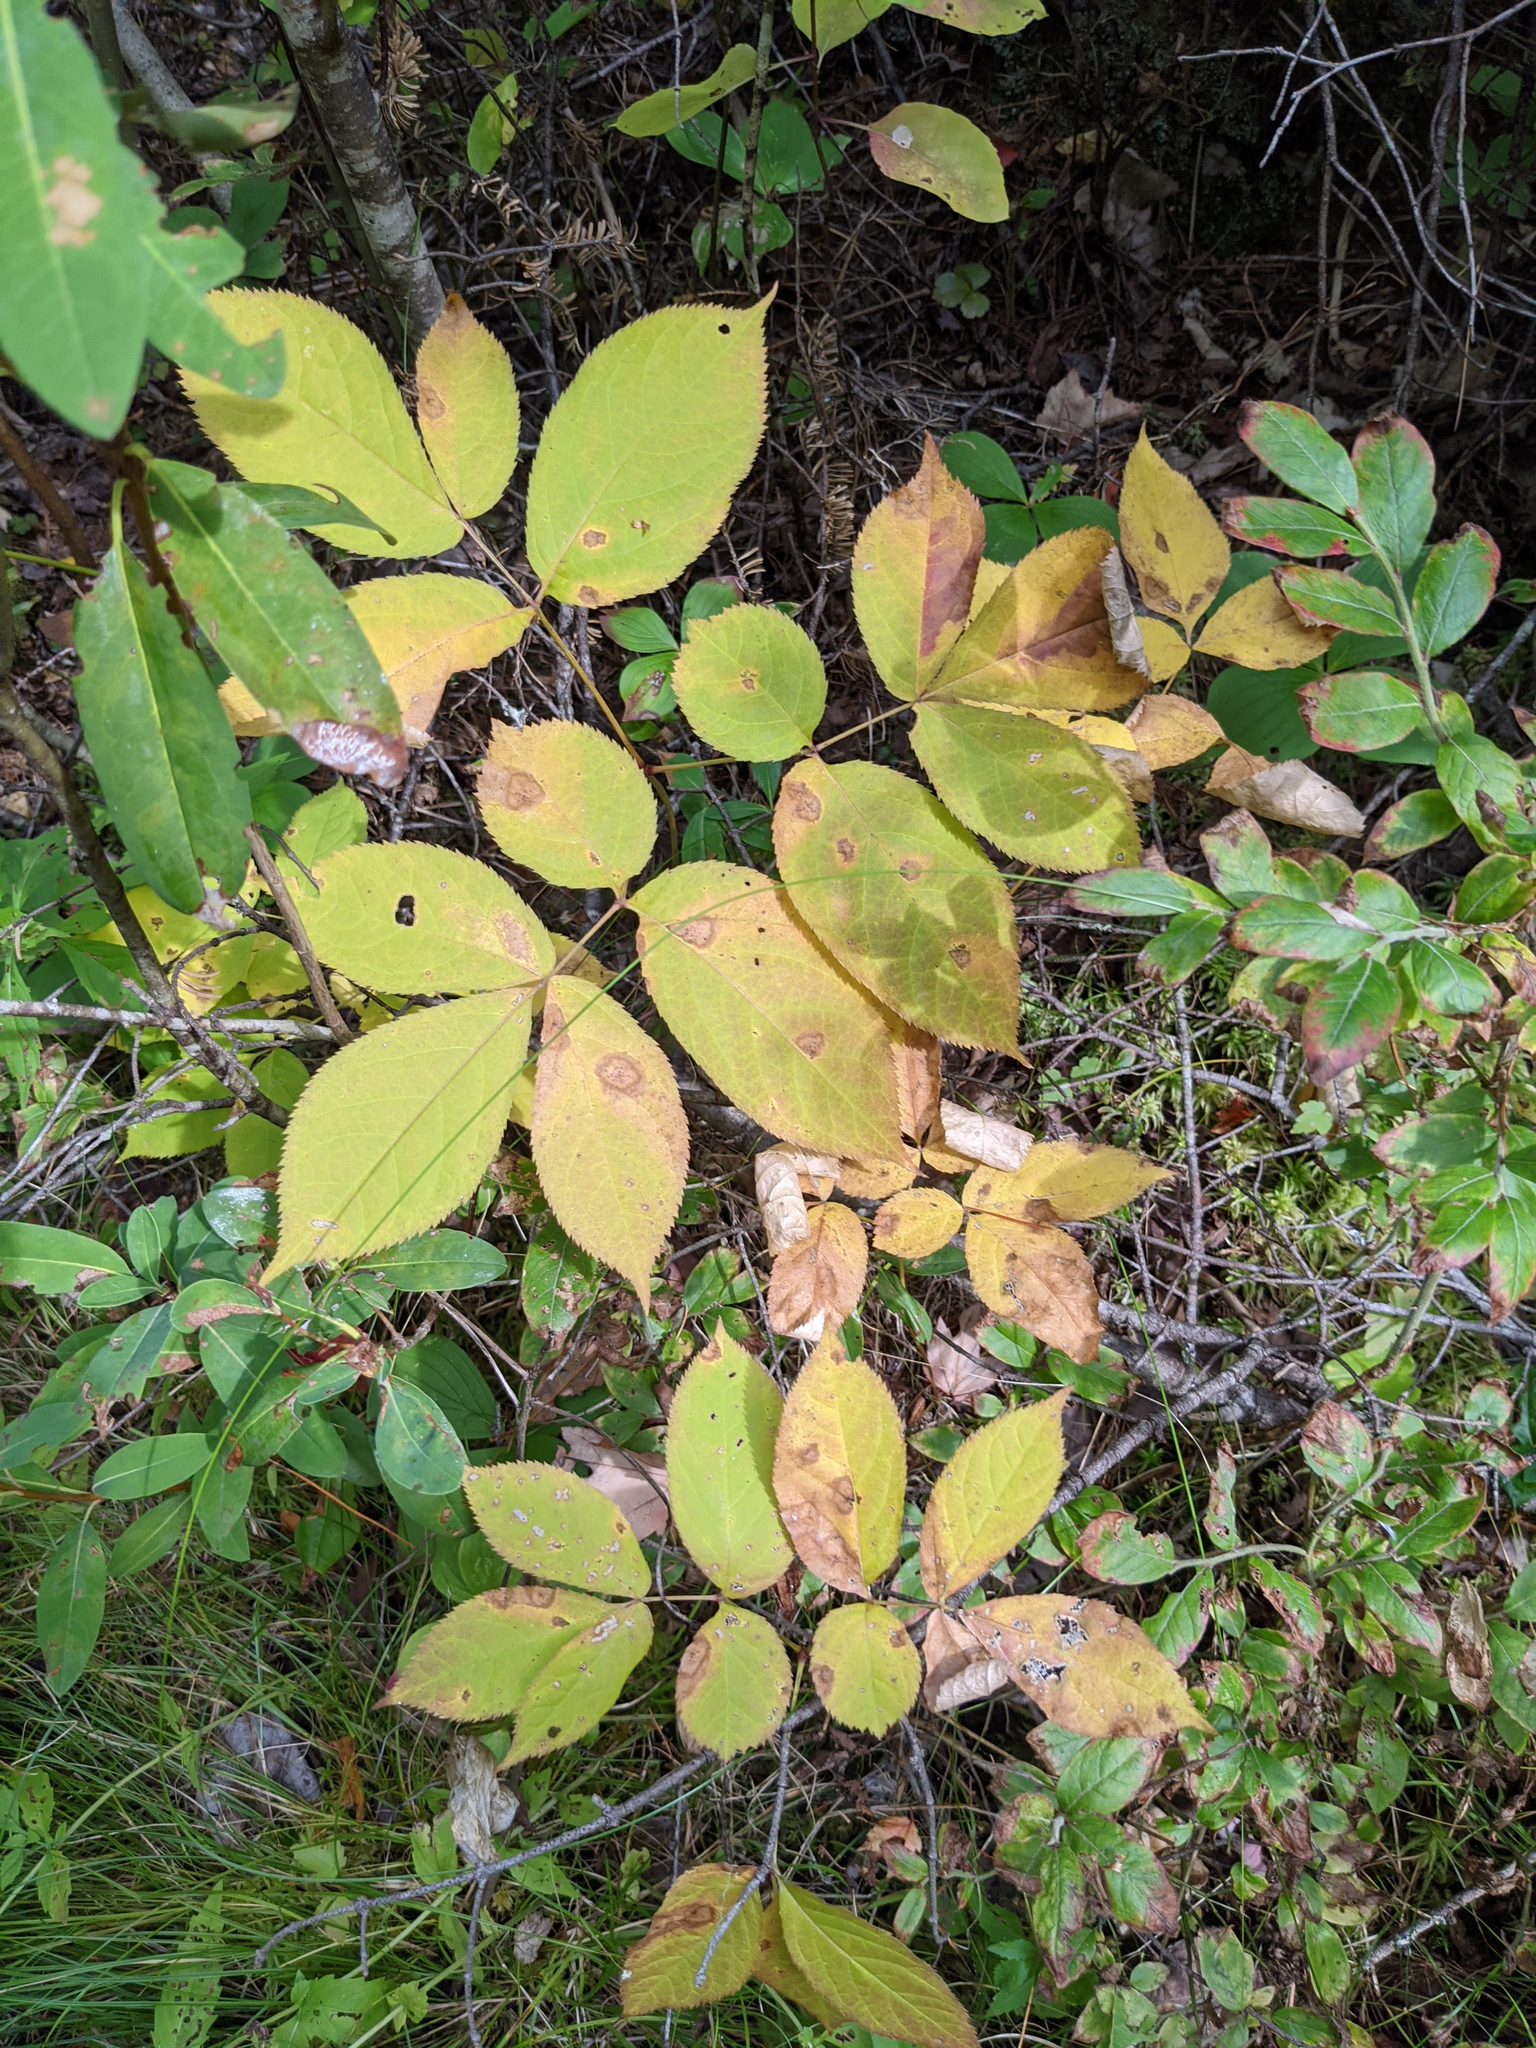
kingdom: Plantae
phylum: Tracheophyta
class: Magnoliopsida
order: Apiales
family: Araliaceae
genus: Aralia
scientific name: Aralia nudicaulis
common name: Wild sarsaparilla
